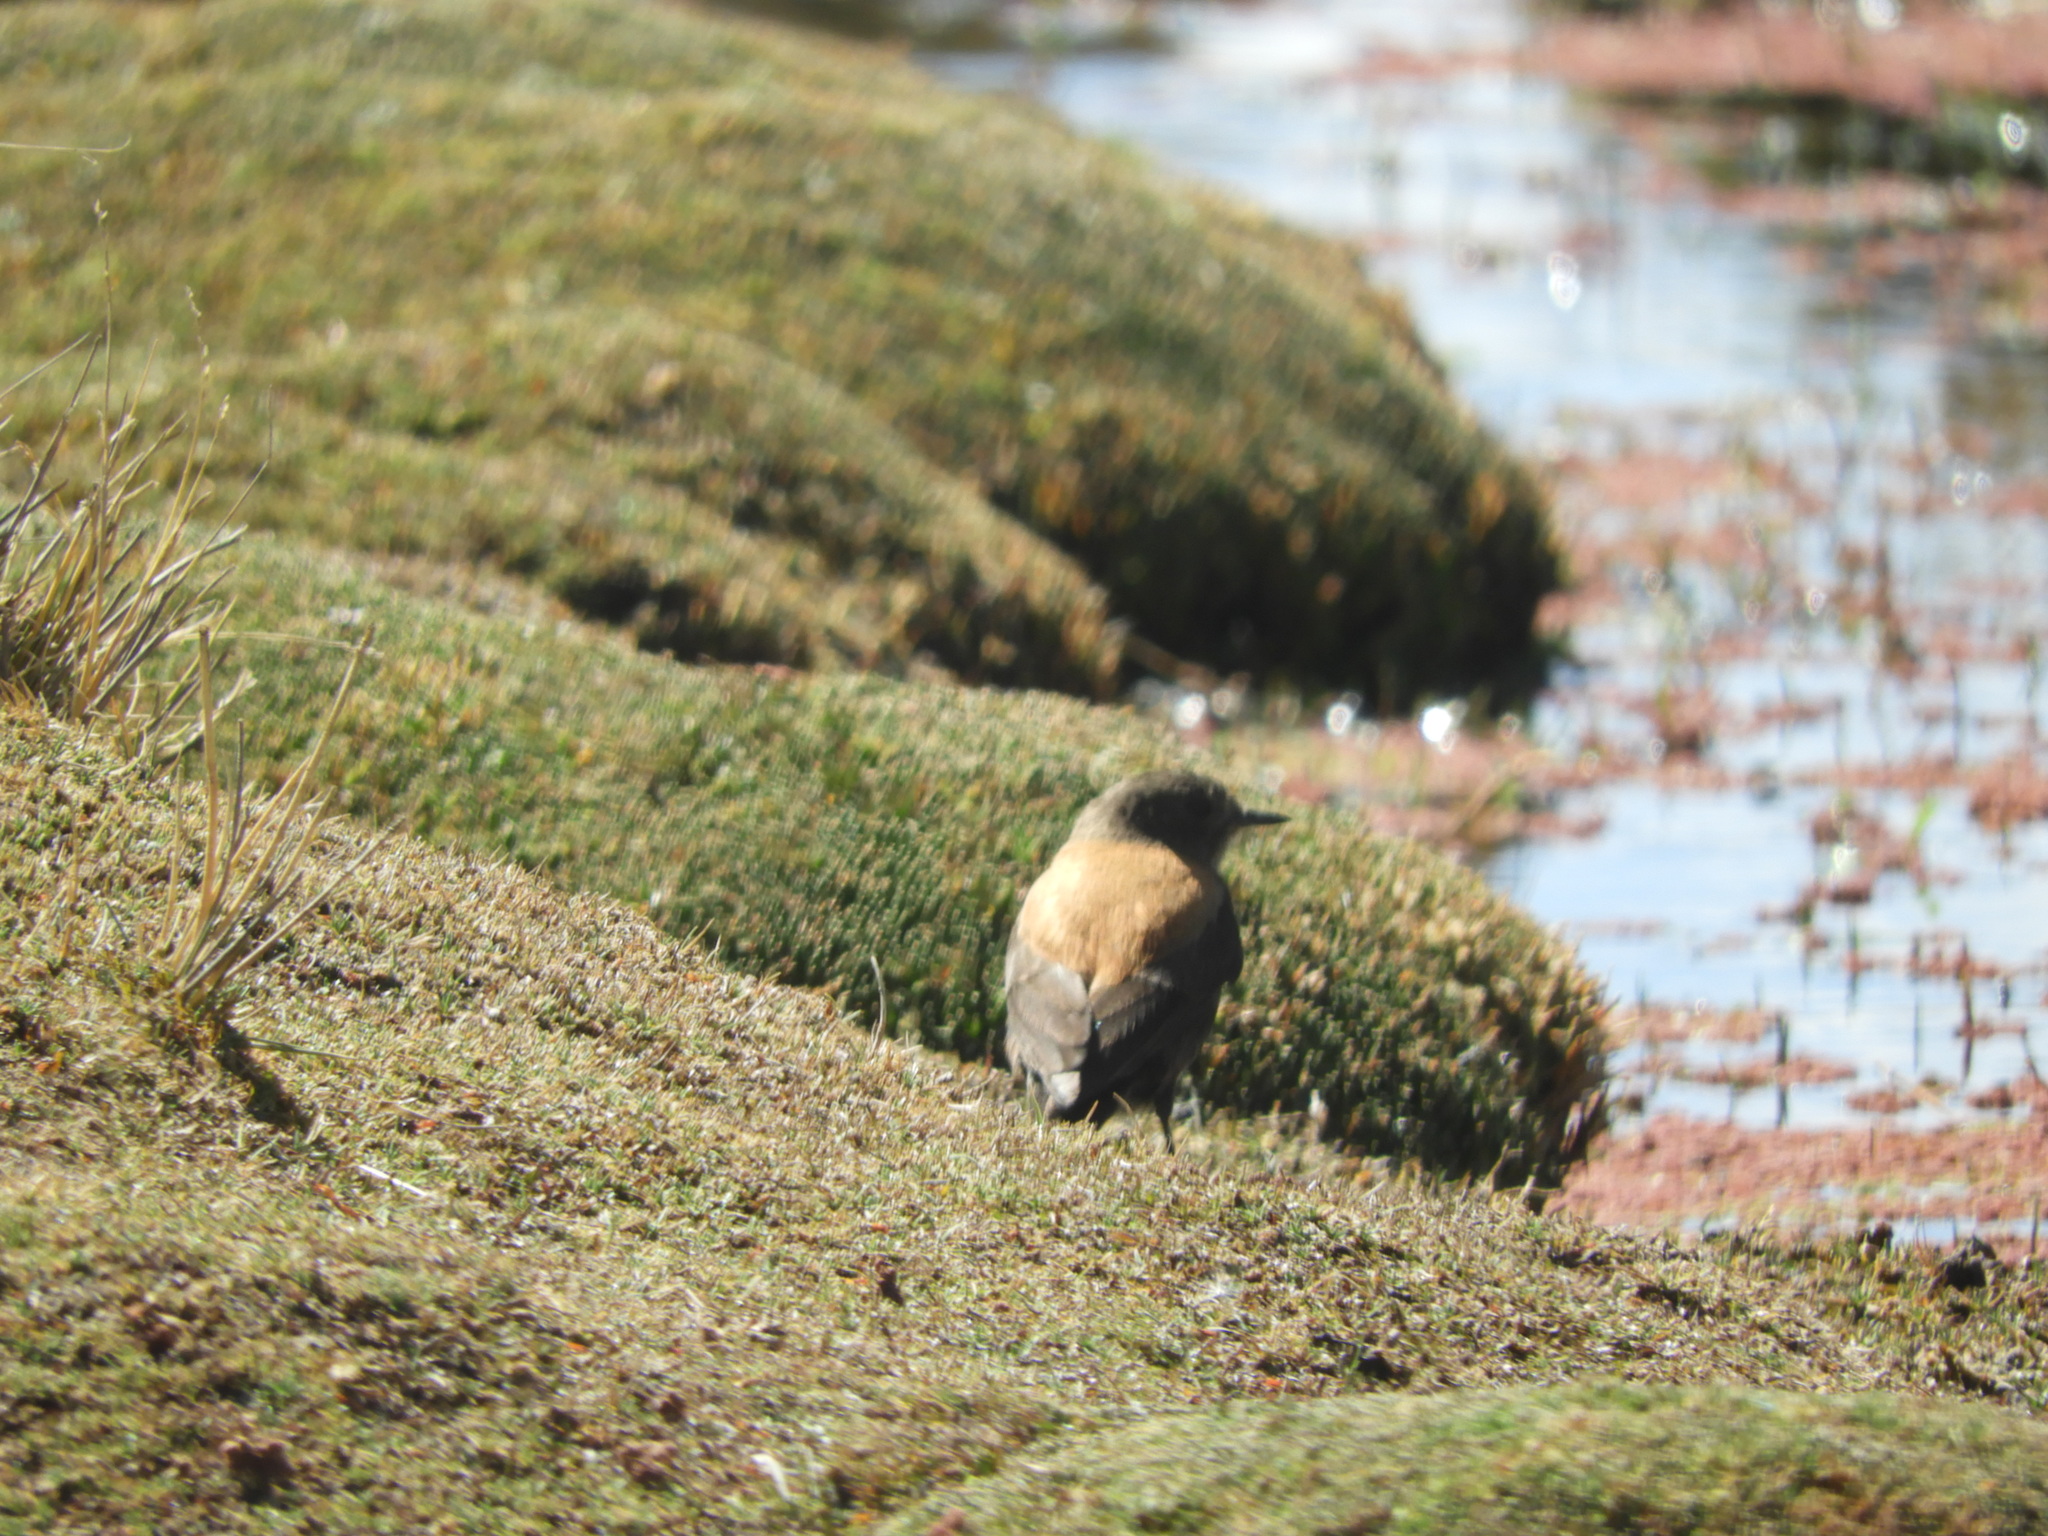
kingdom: Animalia
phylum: Chordata
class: Aves
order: Passeriformes
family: Tyrannidae
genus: Lessonia
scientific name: Lessonia oreas
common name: Andean negrito
